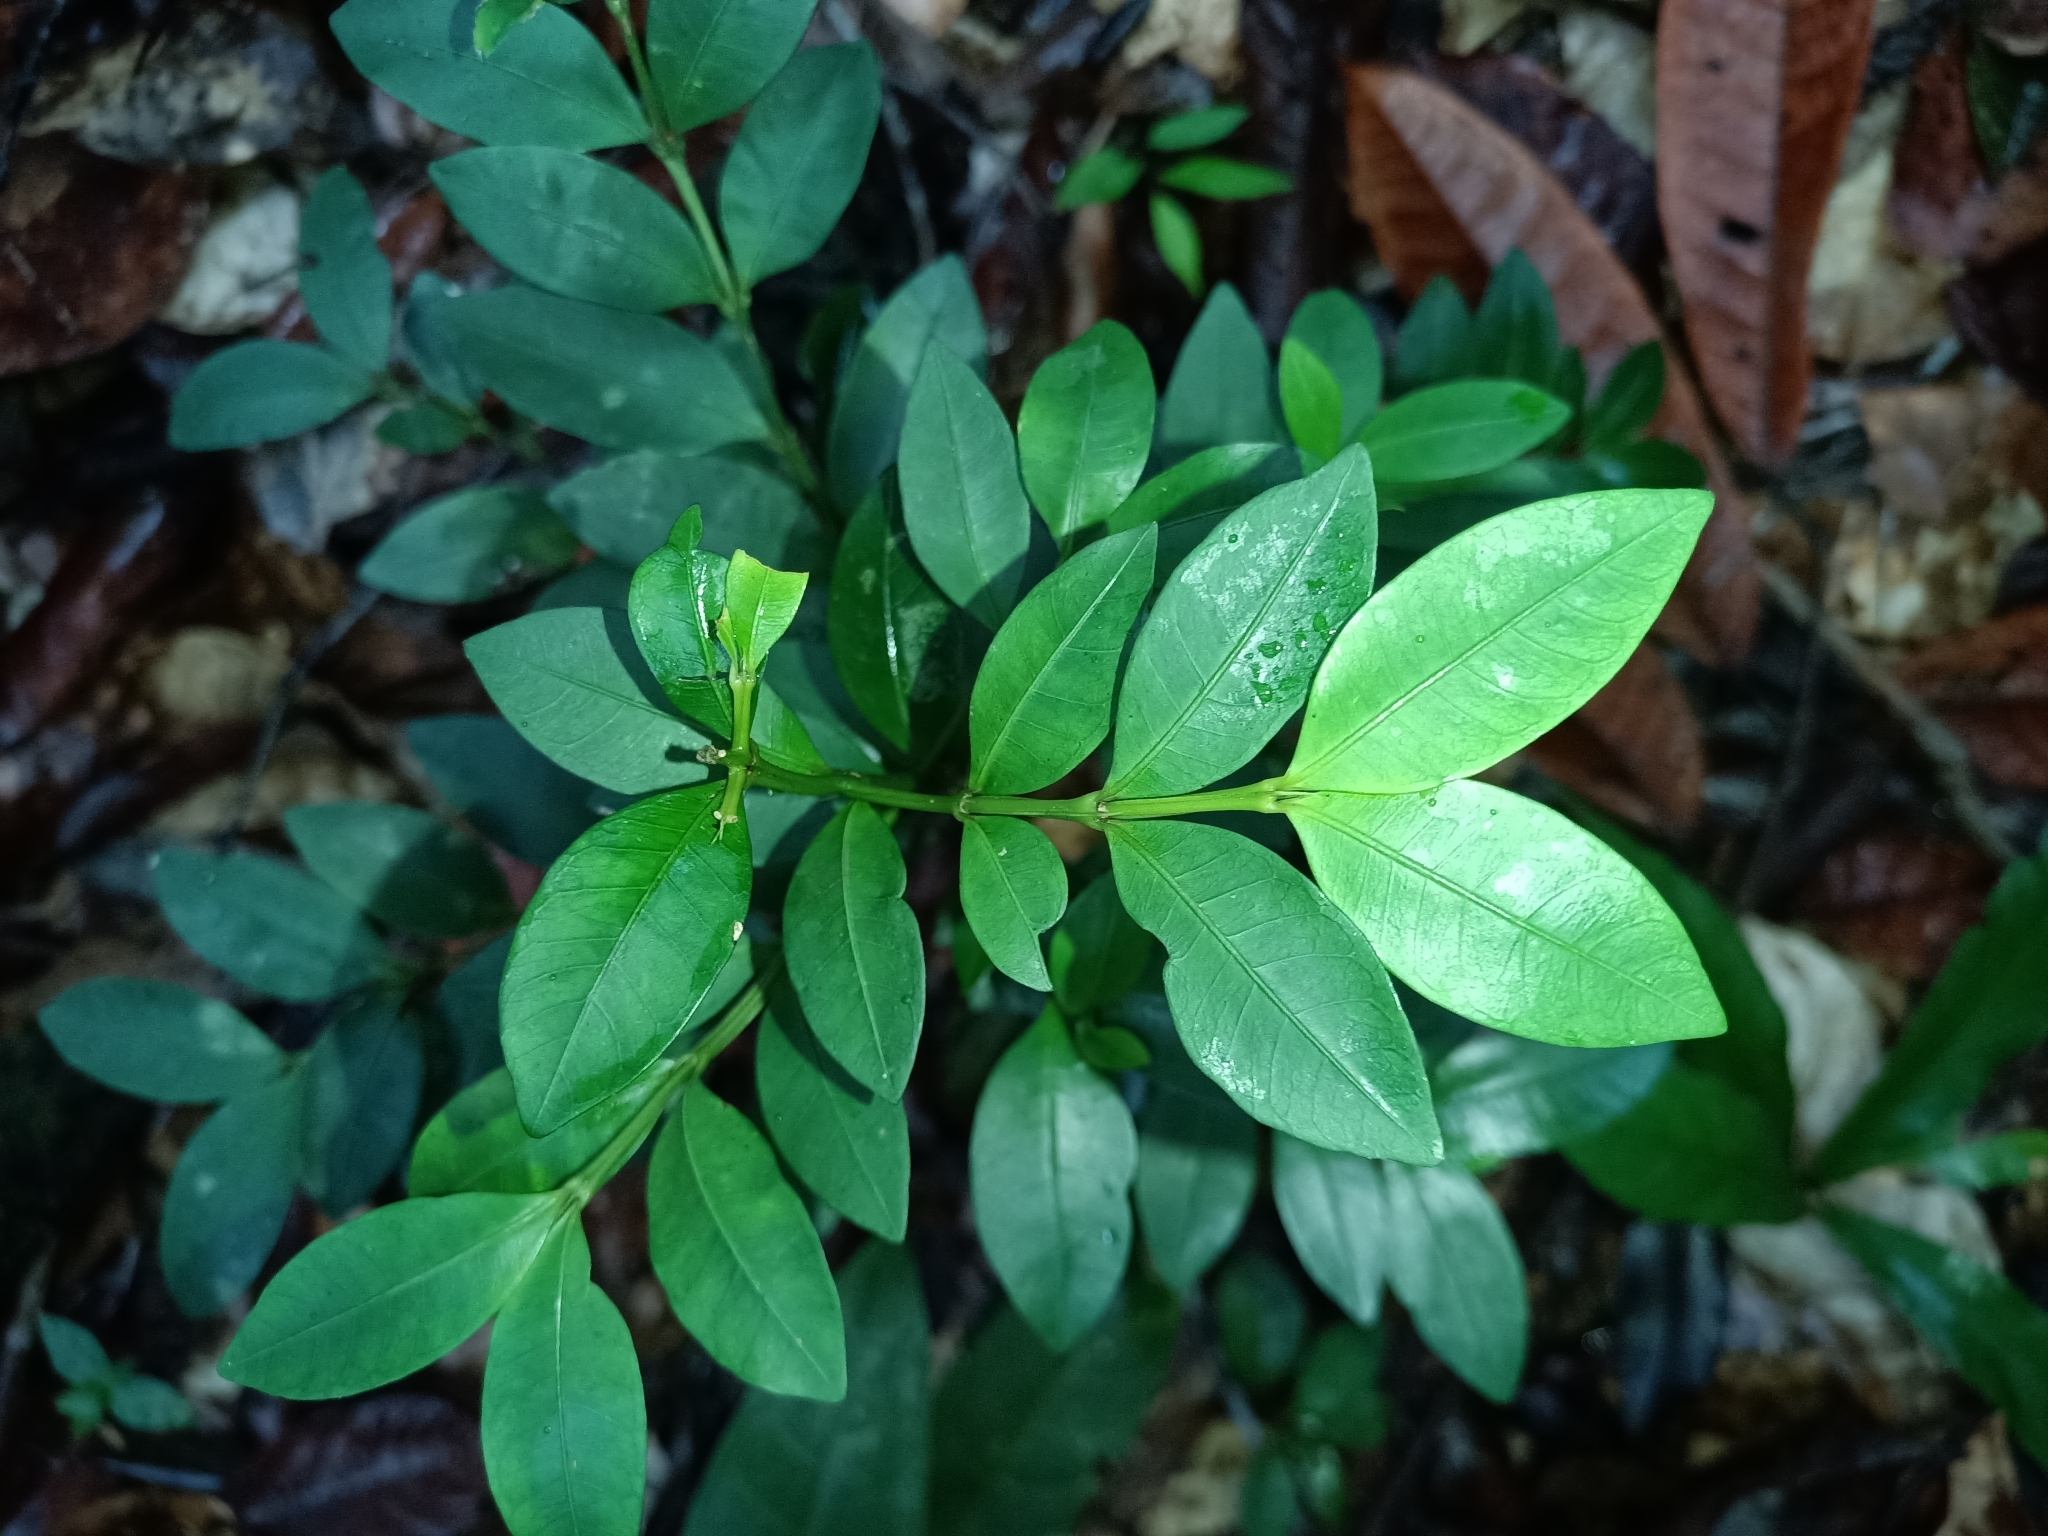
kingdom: Plantae
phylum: Tracheophyta
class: Magnoliopsida
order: Gentianales
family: Rubiaceae
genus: Faramea
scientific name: Faramea lourteigiana
